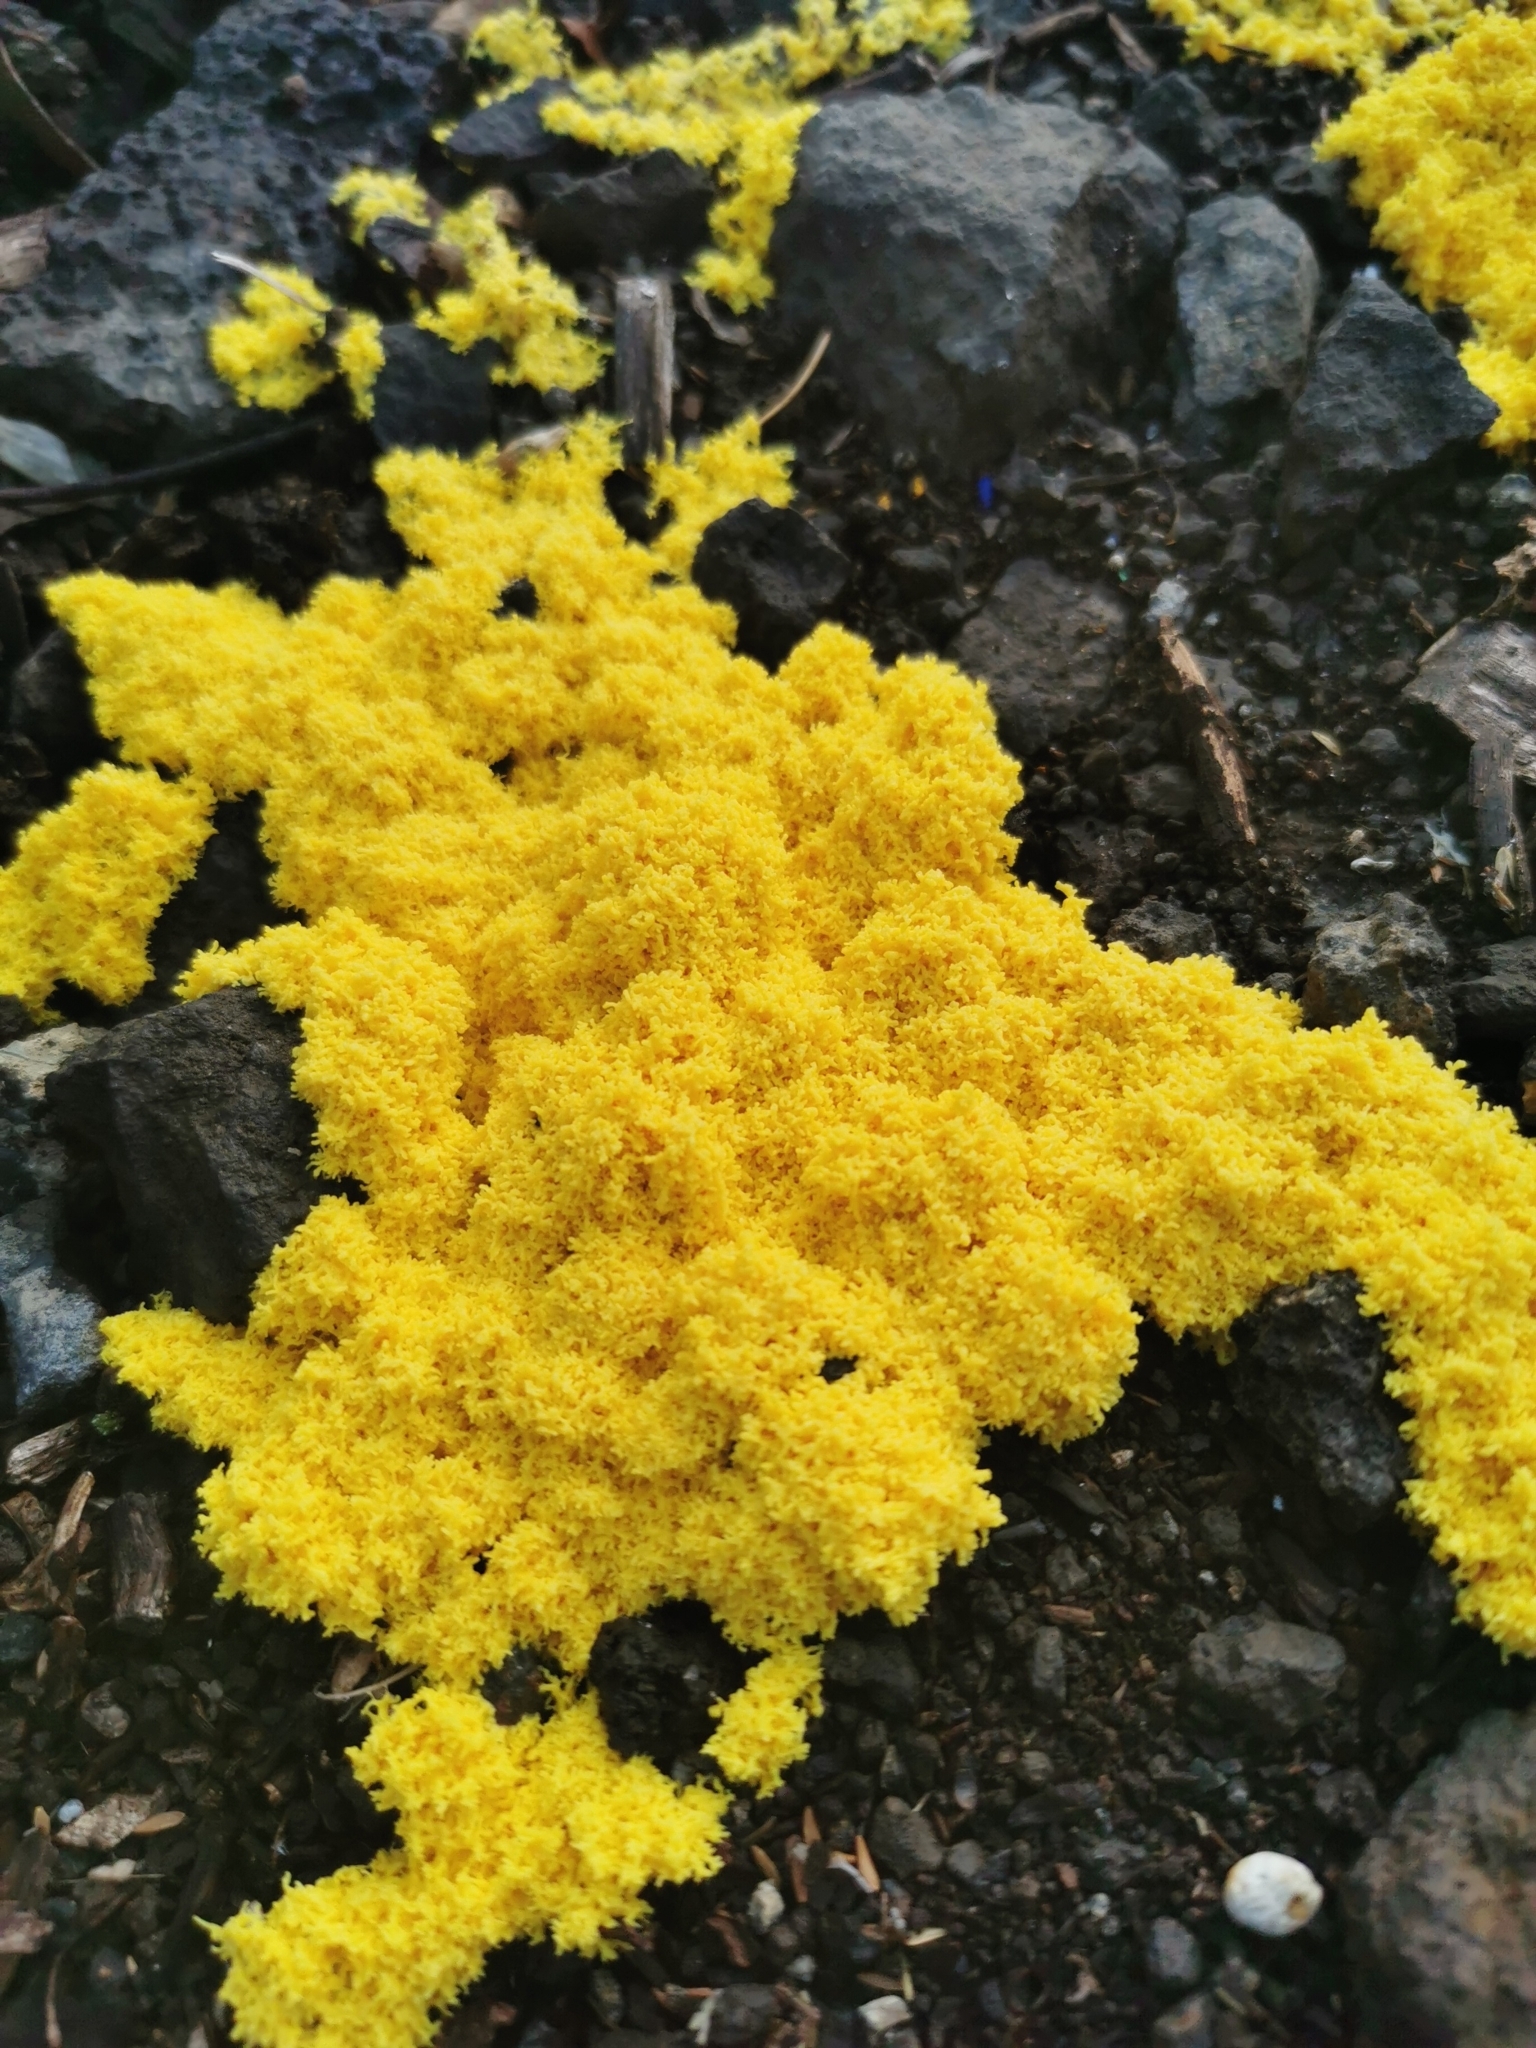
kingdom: Protozoa
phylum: Mycetozoa
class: Myxomycetes
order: Physarales
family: Physaraceae
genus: Fuligo
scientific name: Fuligo septica
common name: Dog vomit slime mold
